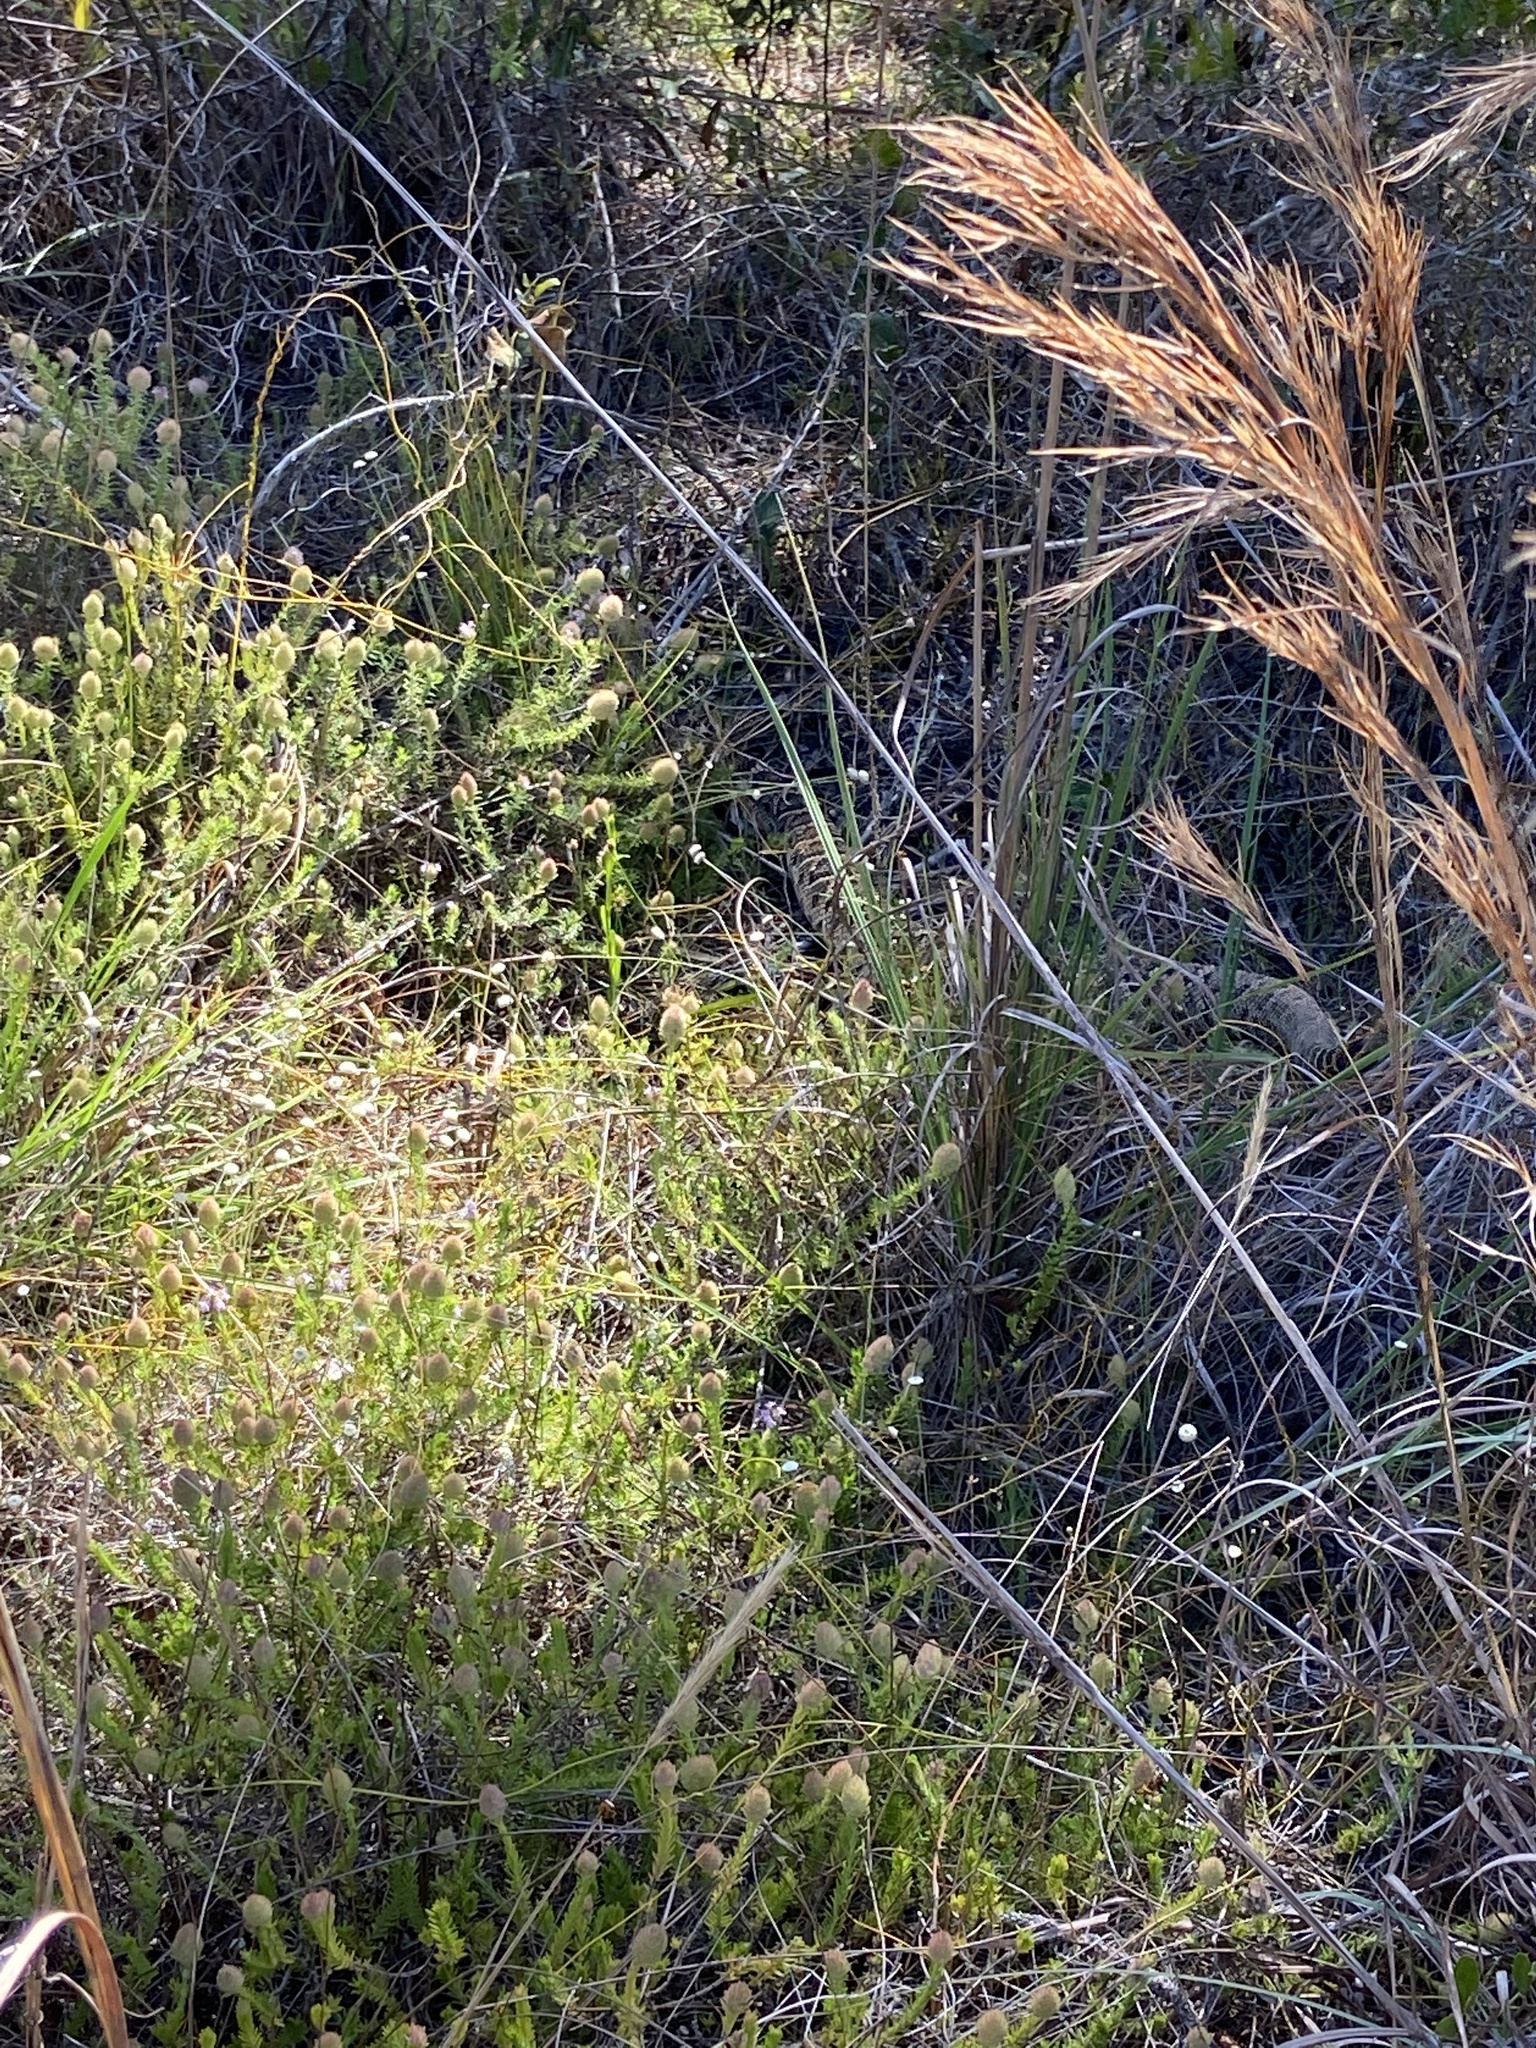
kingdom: Animalia
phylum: Chordata
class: Squamata
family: Viperidae
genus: Crotalus
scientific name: Crotalus adamanteus
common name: Eastern diamondback rattlesnake
